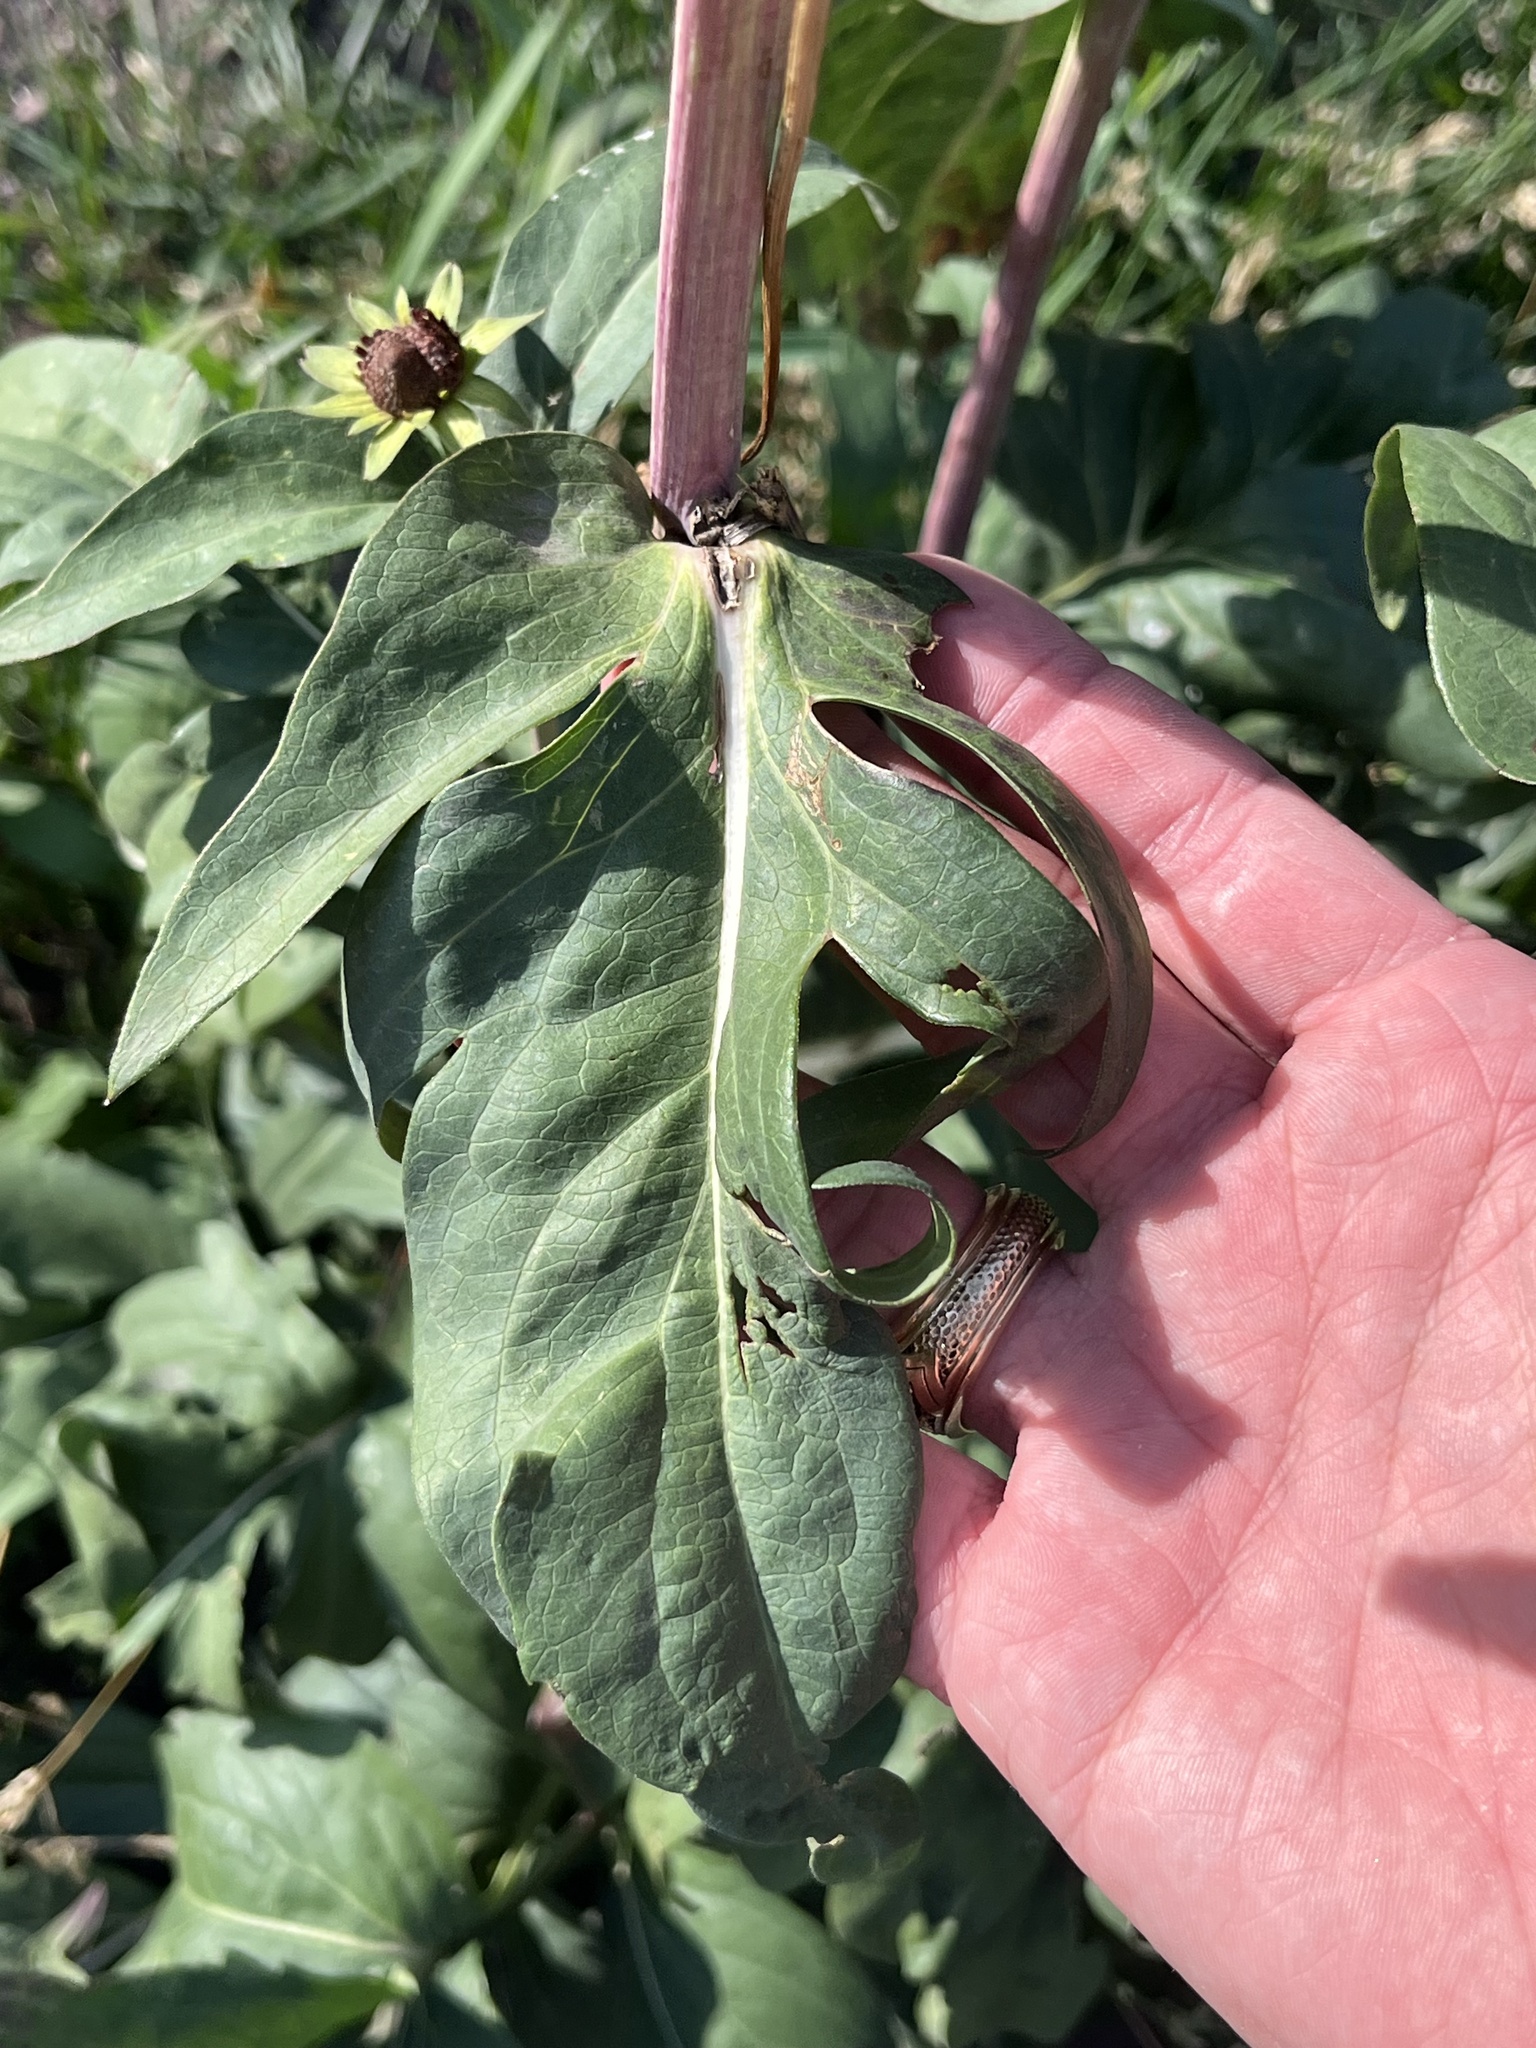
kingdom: Plantae
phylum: Tracheophyta
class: Magnoliopsida
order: Asterales
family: Asteraceae
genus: Rudbeckia
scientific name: Rudbeckia occidentalis
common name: Western coneflower
